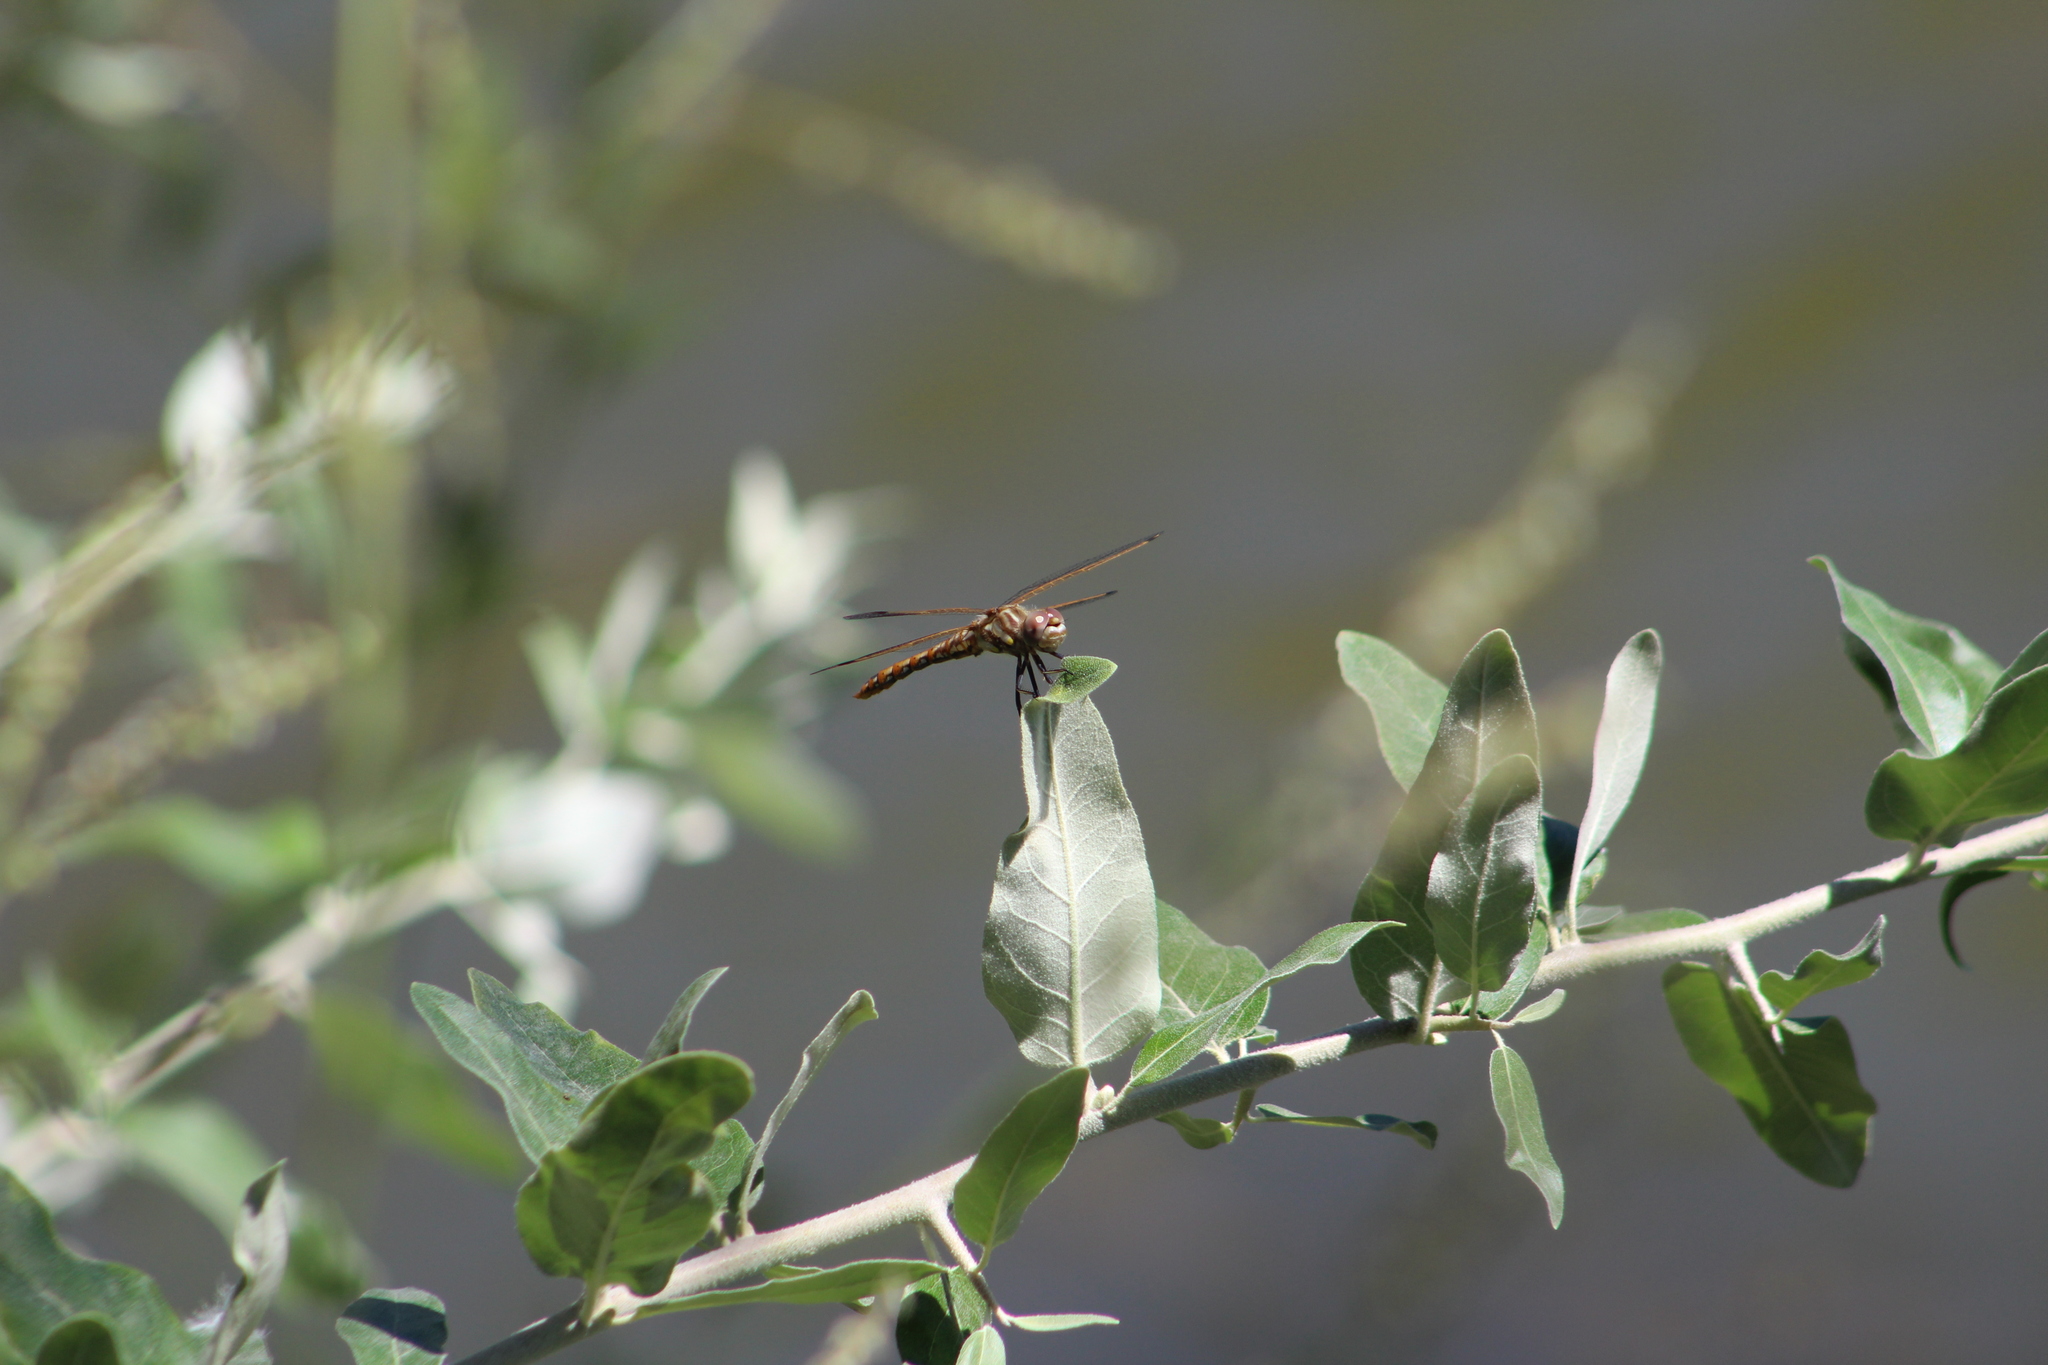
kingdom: Animalia
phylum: Arthropoda
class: Insecta
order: Odonata
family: Libellulidae
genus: Sympetrum
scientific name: Sympetrum corruptum
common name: Variegated meadowhawk
